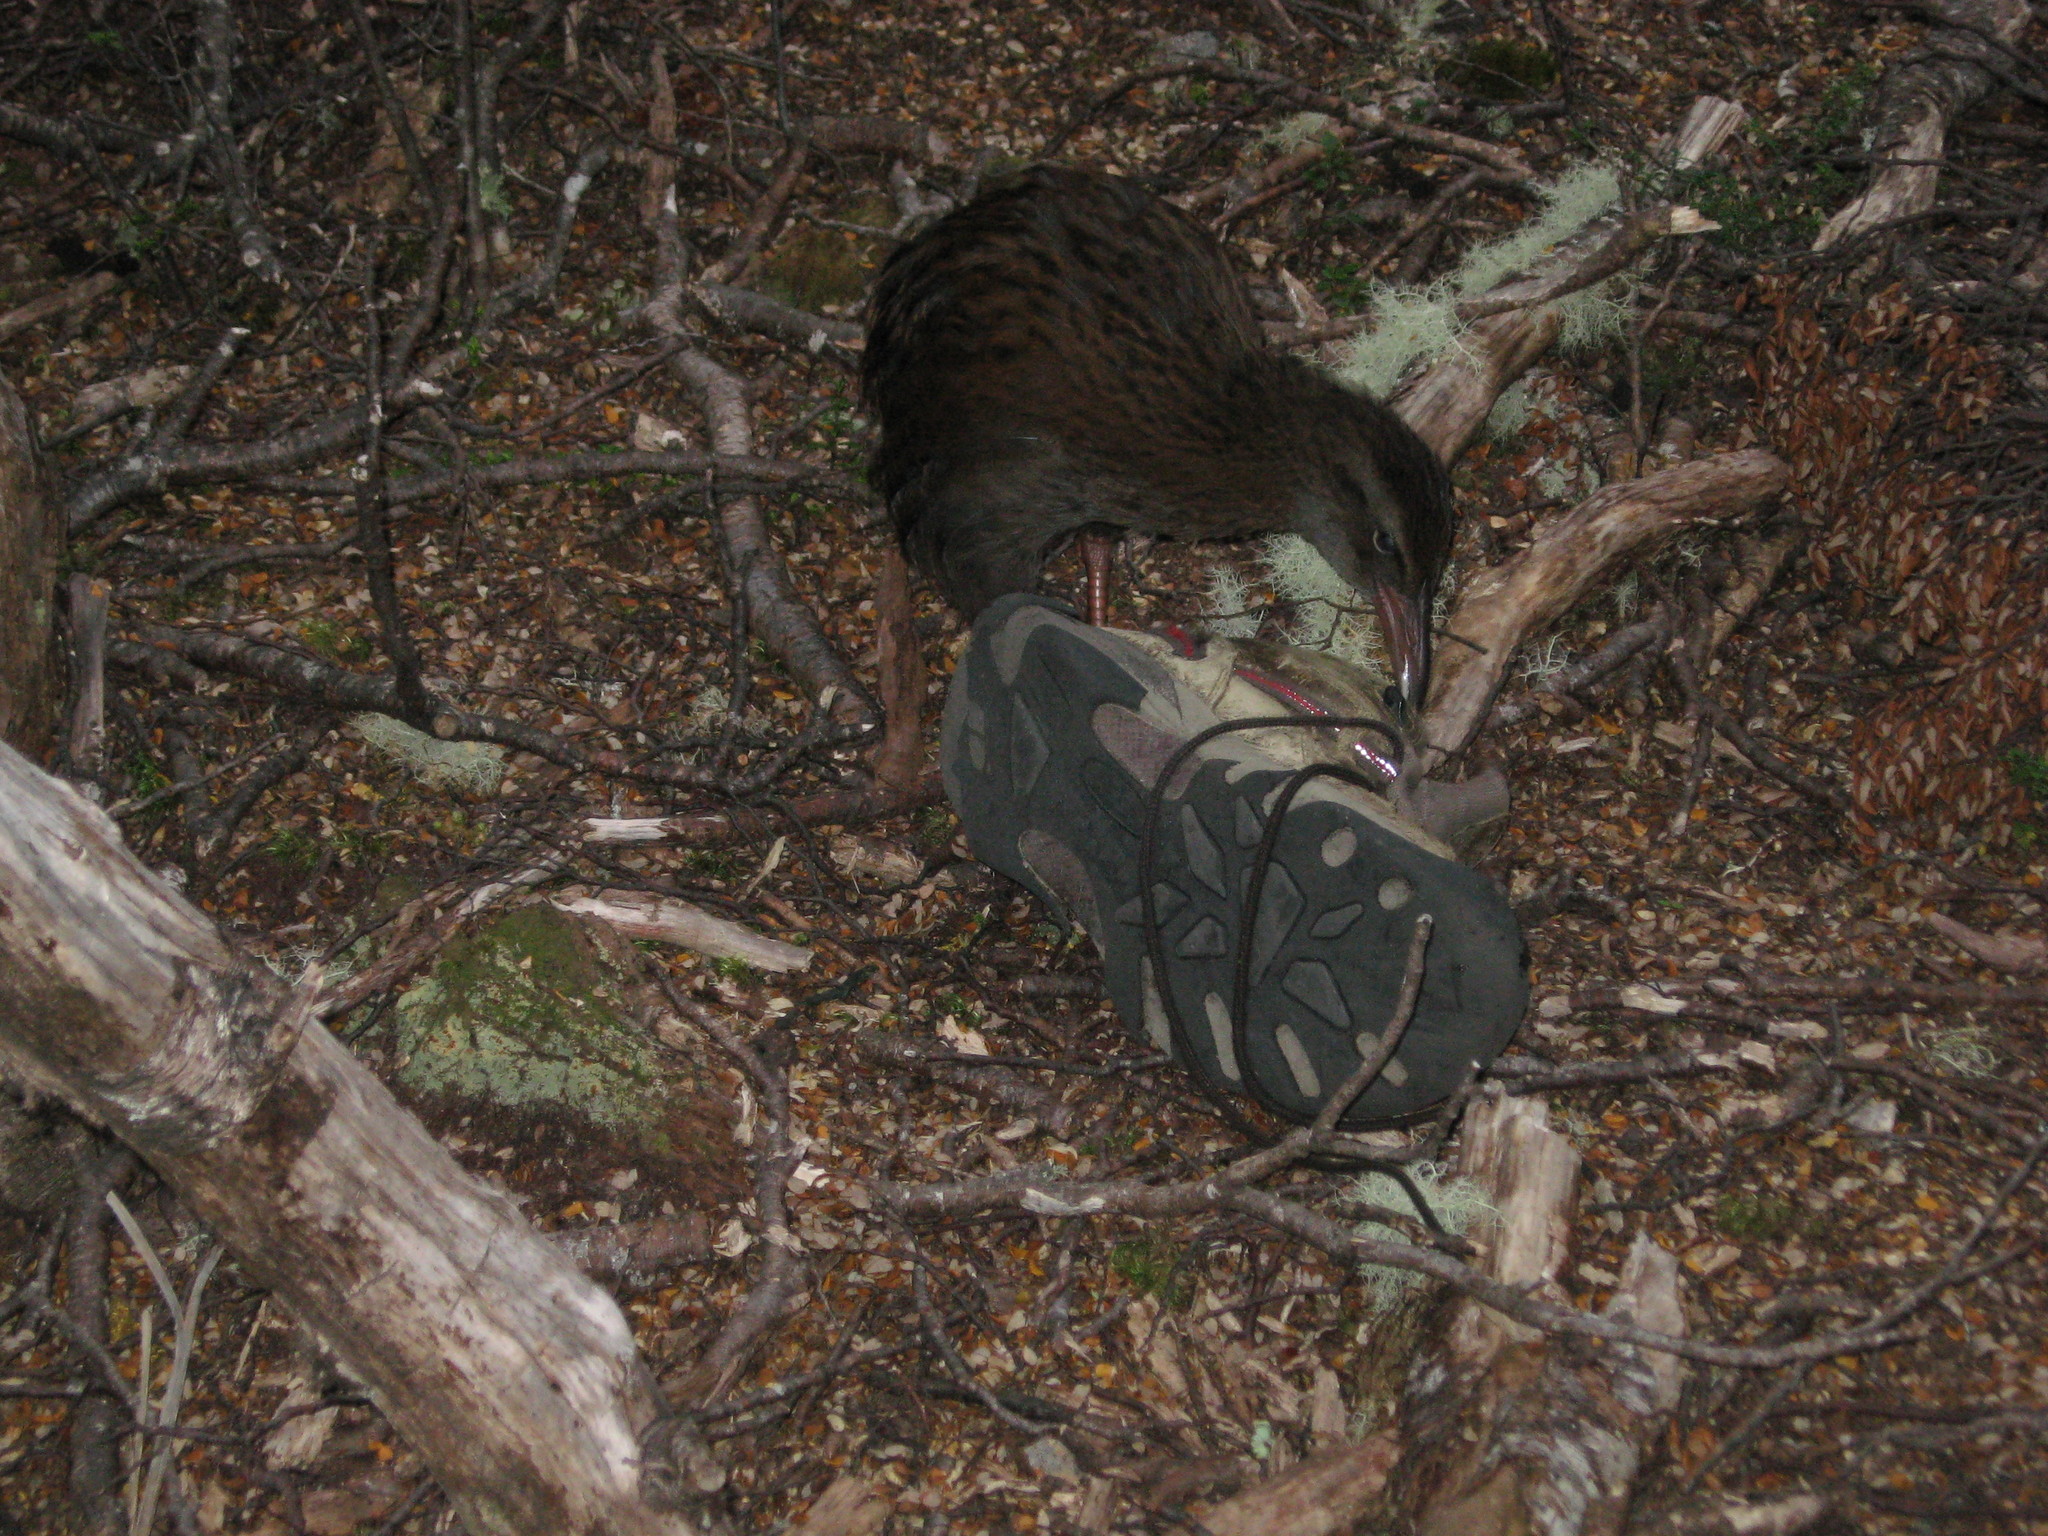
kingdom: Animalia
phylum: Chordata
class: Aves
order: Gruiformes
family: Rallidae
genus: Gallirallus
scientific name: Gallirallus australis
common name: Weka
